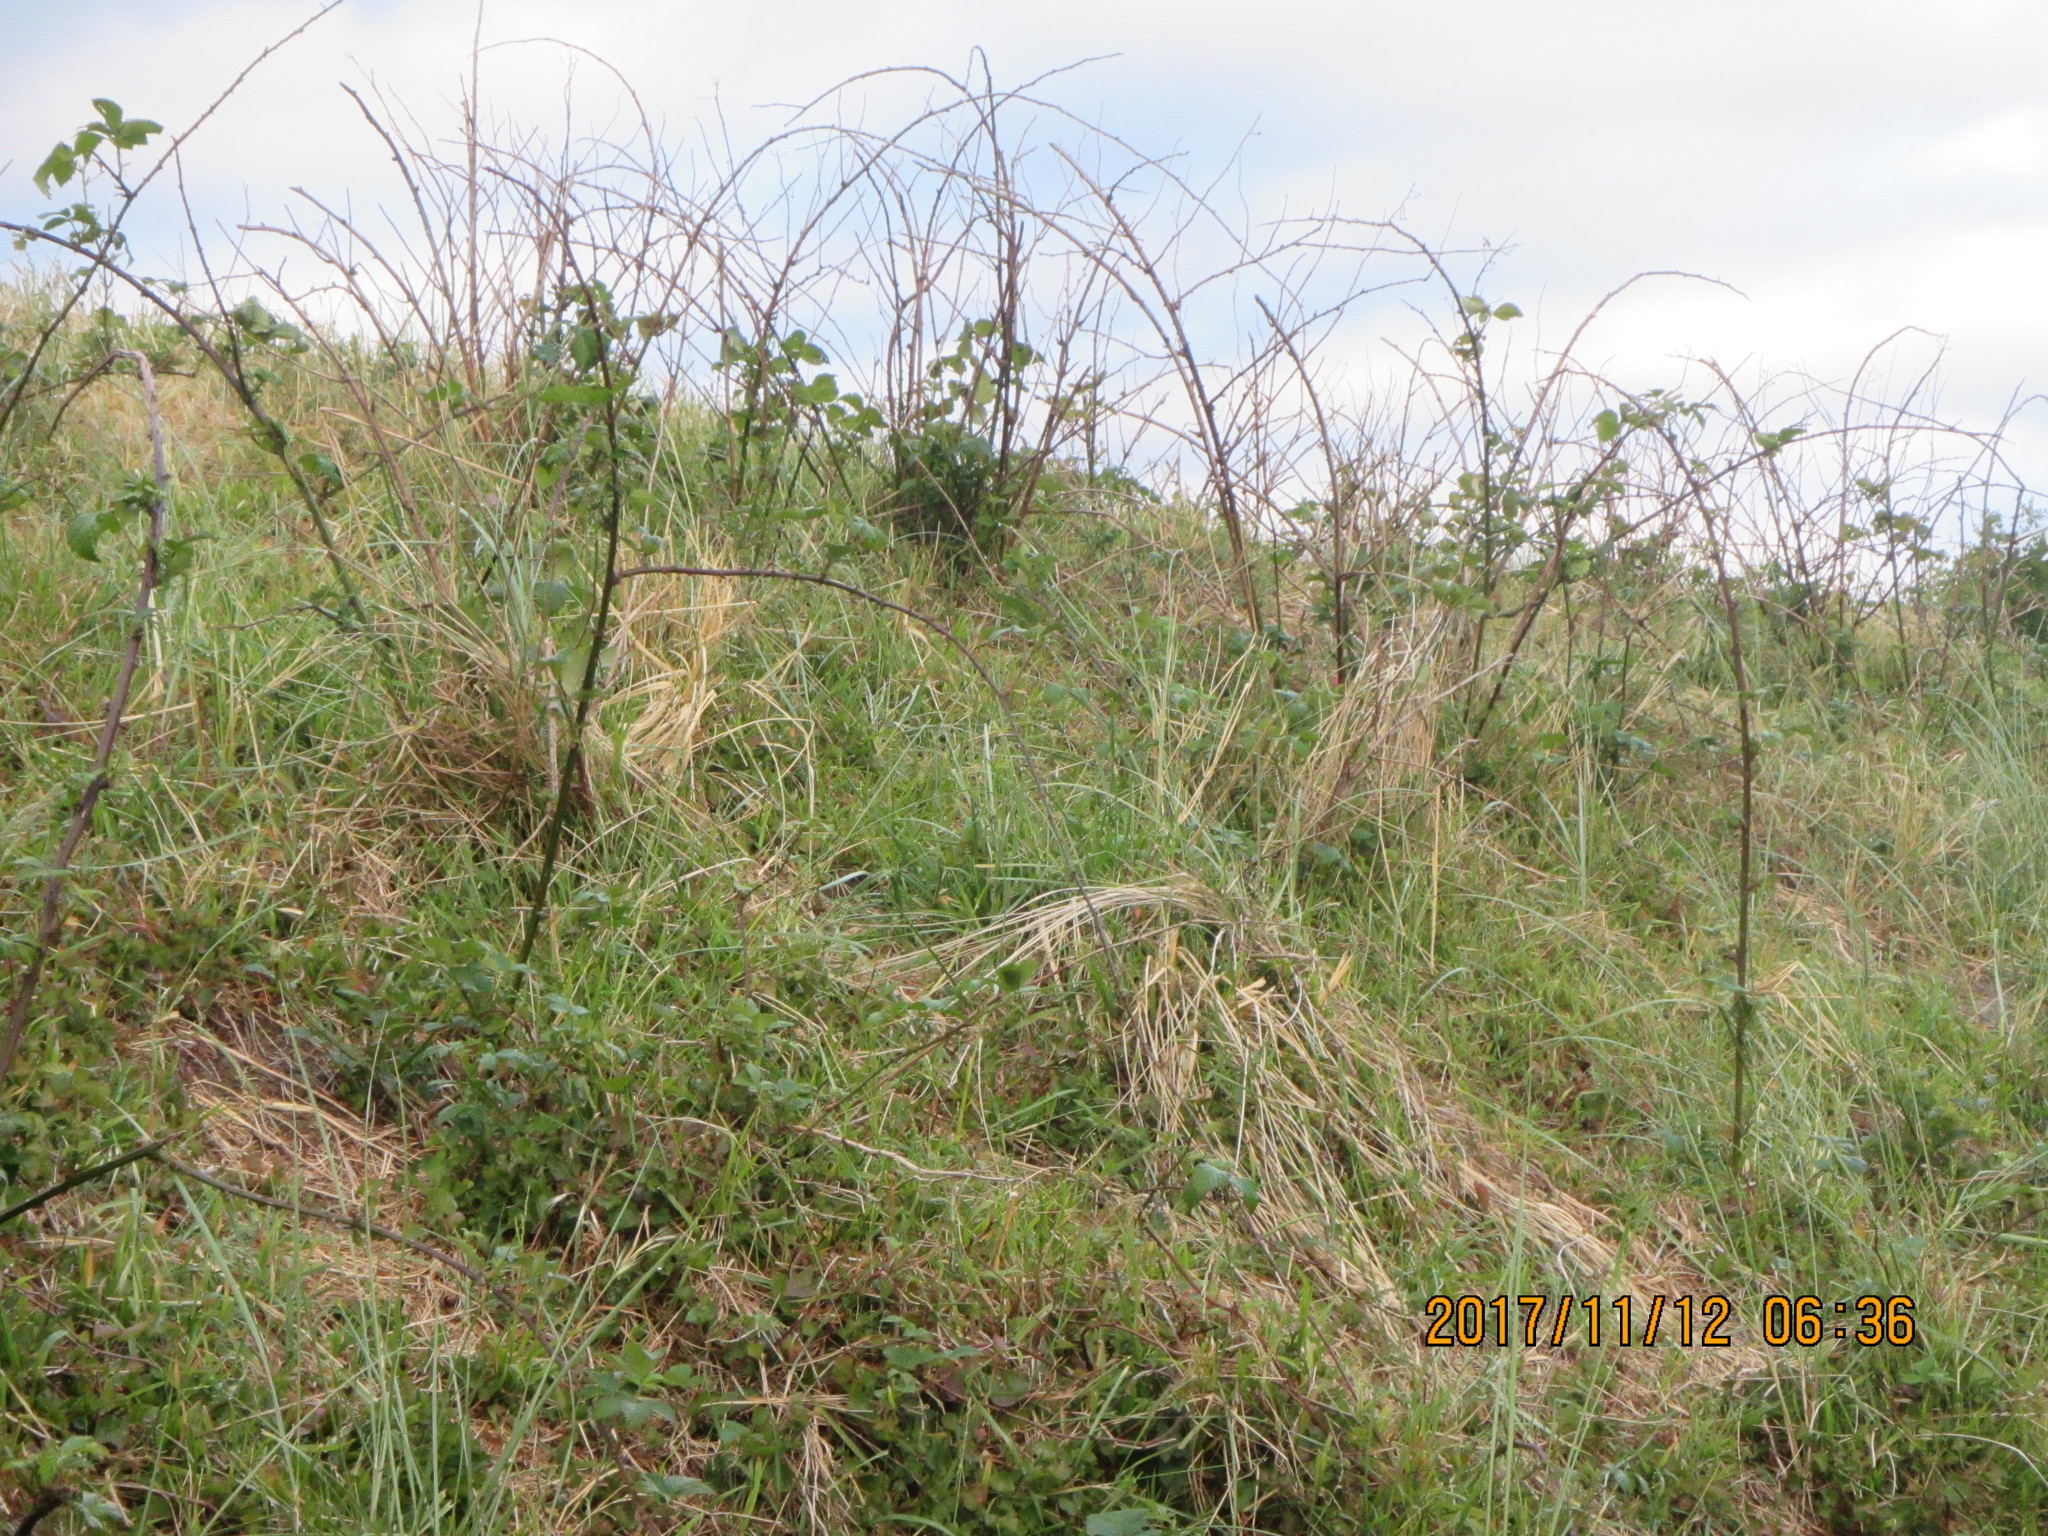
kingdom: Plantae
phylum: Tracheophyta
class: Magnoliopsida
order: Rosales
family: Rosaceae
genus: Rubus
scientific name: Rubus
